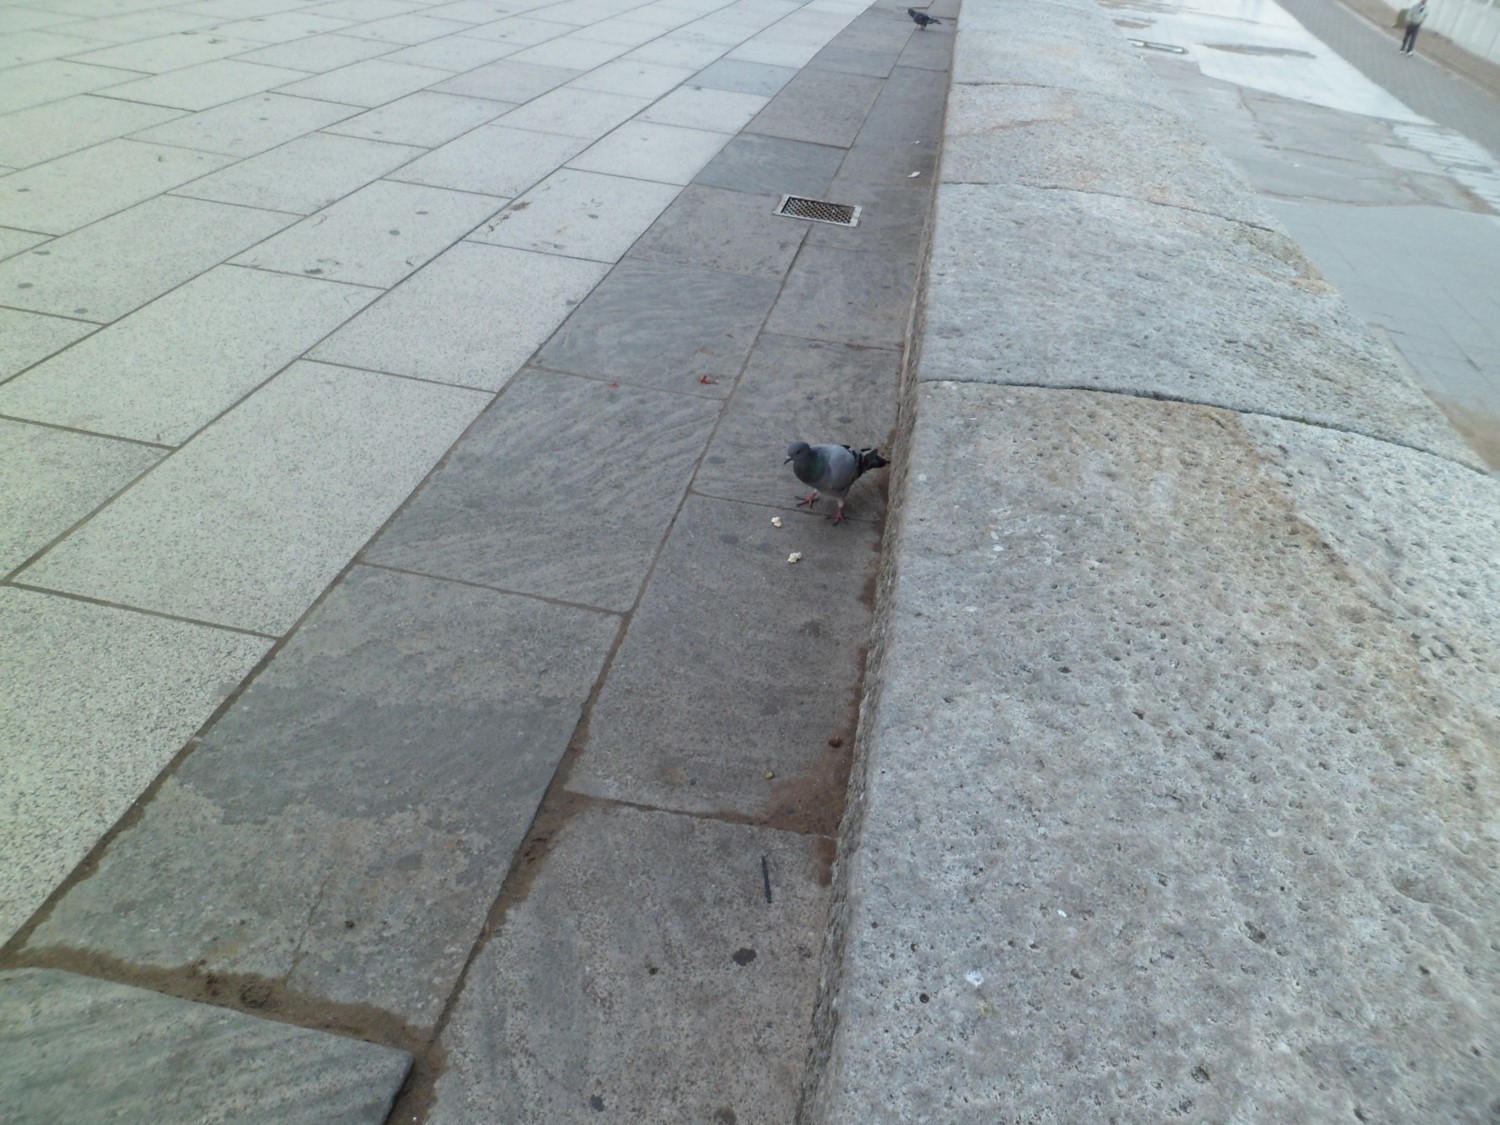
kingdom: Animalia
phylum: Chordata
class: Aves
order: Columbiformes
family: Columbidae
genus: Columba
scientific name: Columba livia
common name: Rock pigeon
